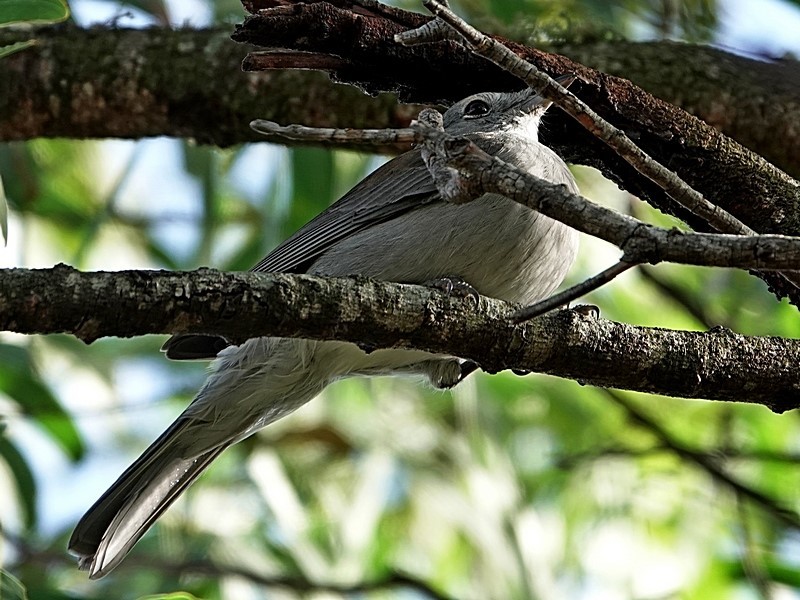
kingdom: Animalia
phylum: Chordata
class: Aves
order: Passeriformes
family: Pachycephalidae
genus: Colluricincla
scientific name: Colluricincla harmonica
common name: Grey shrikethrush
